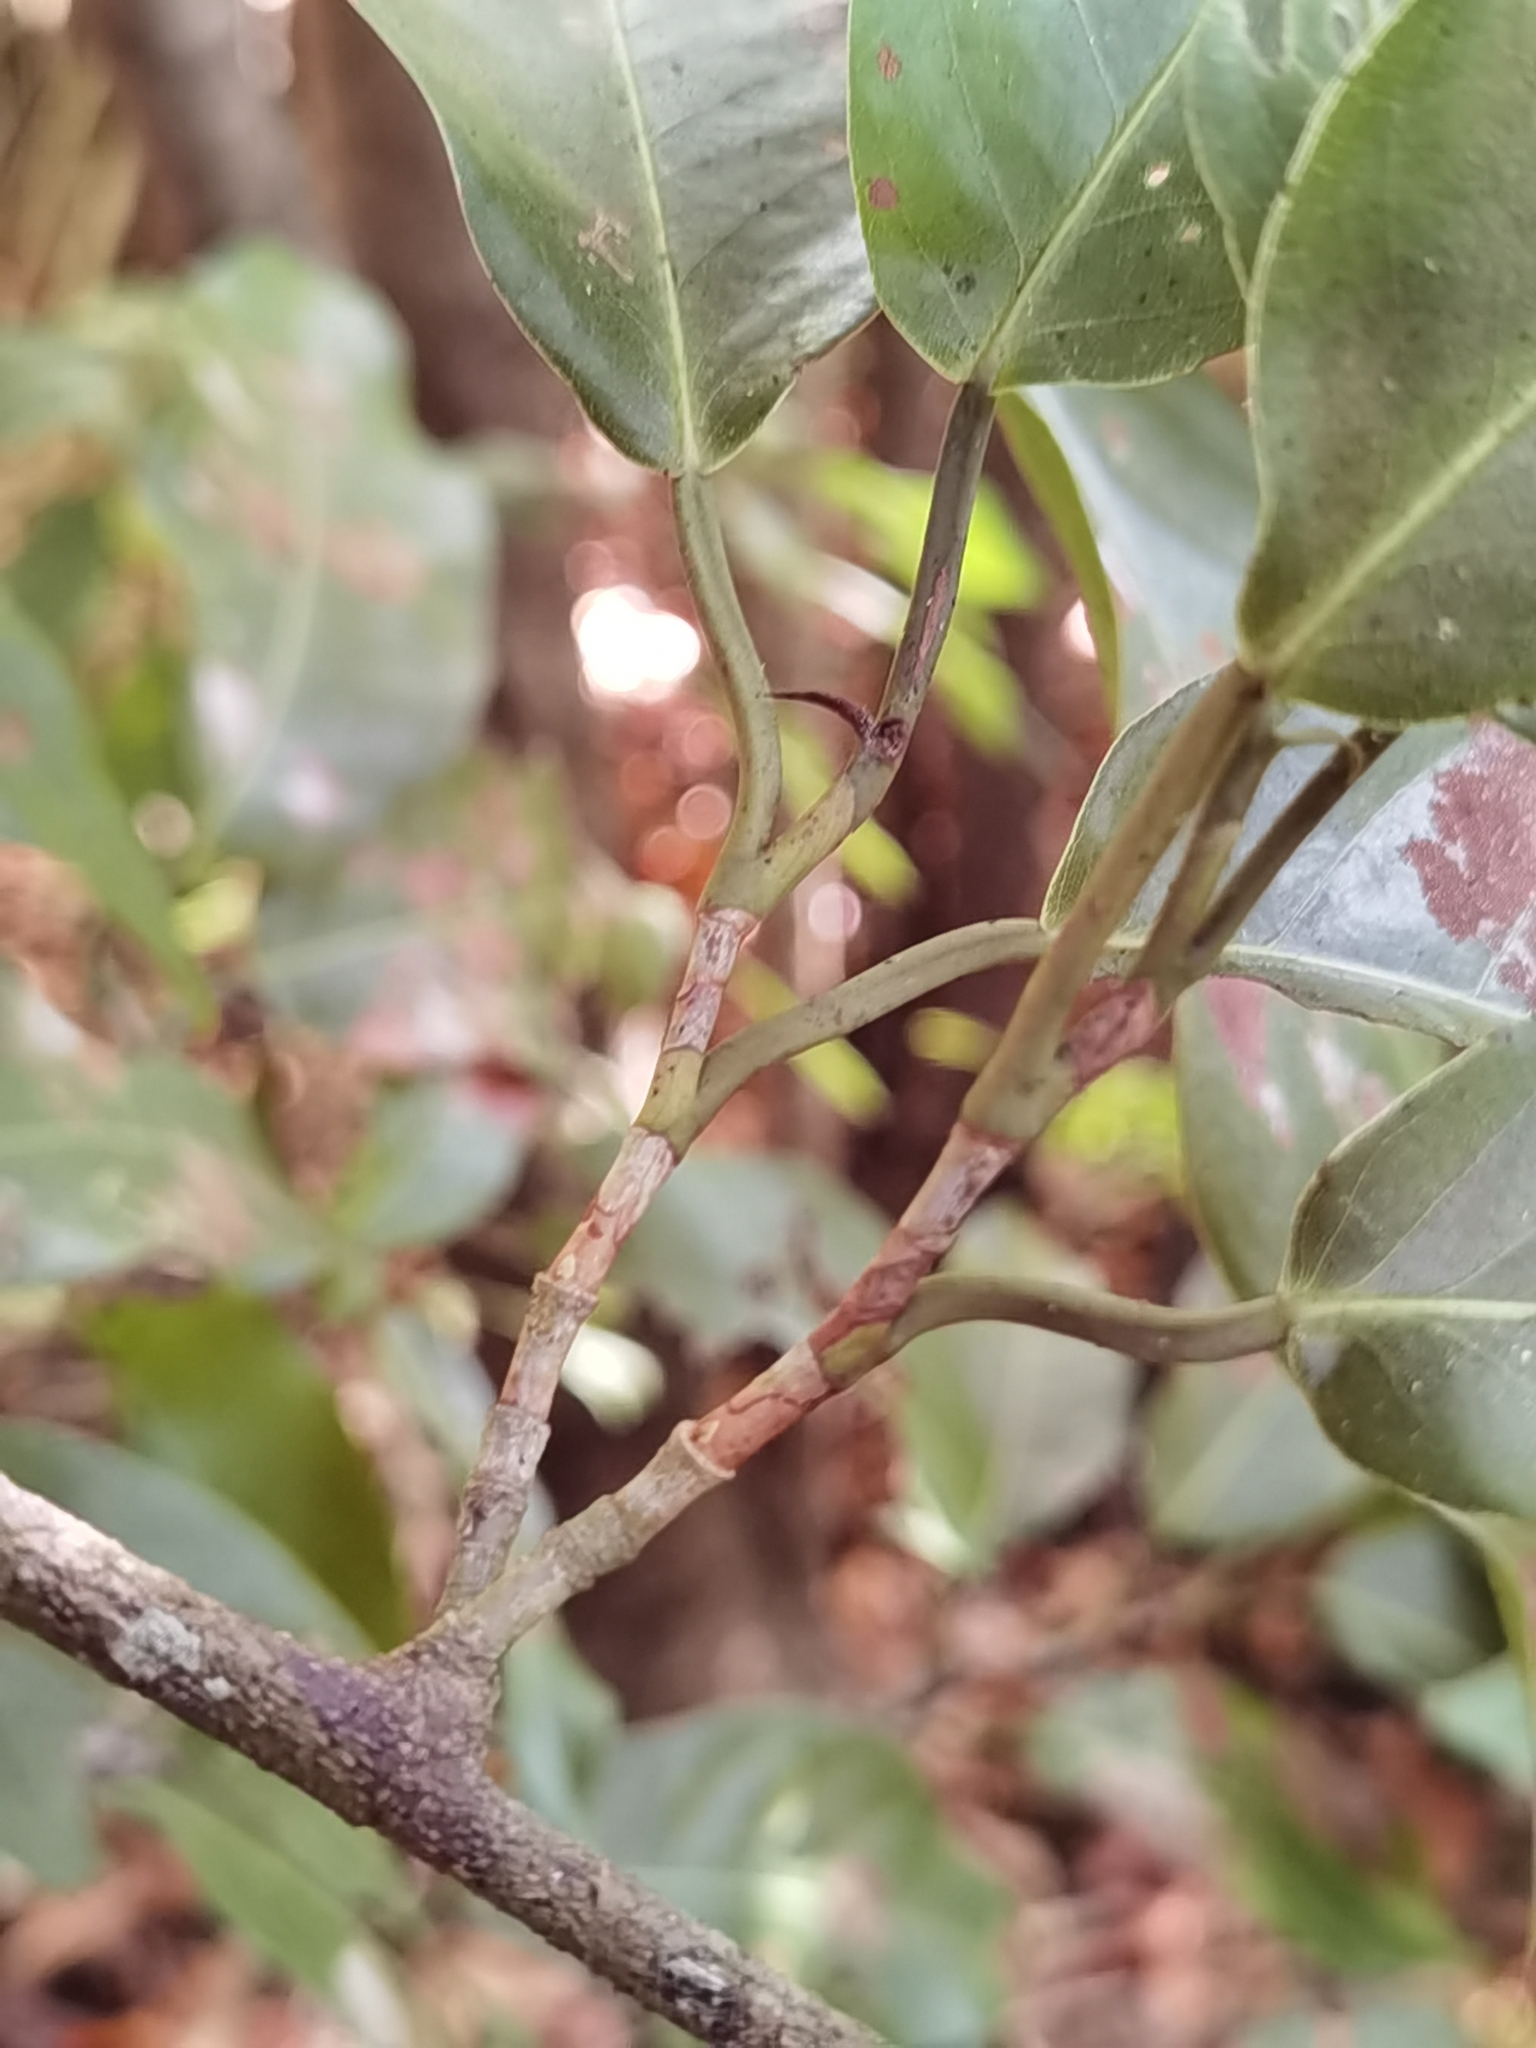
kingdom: Plantae
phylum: Tracheophyta
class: Magnoliopsida
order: Caryophyllales
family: Polygonaceae
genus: Coccoloba
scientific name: Coccoloba guanacastensis
